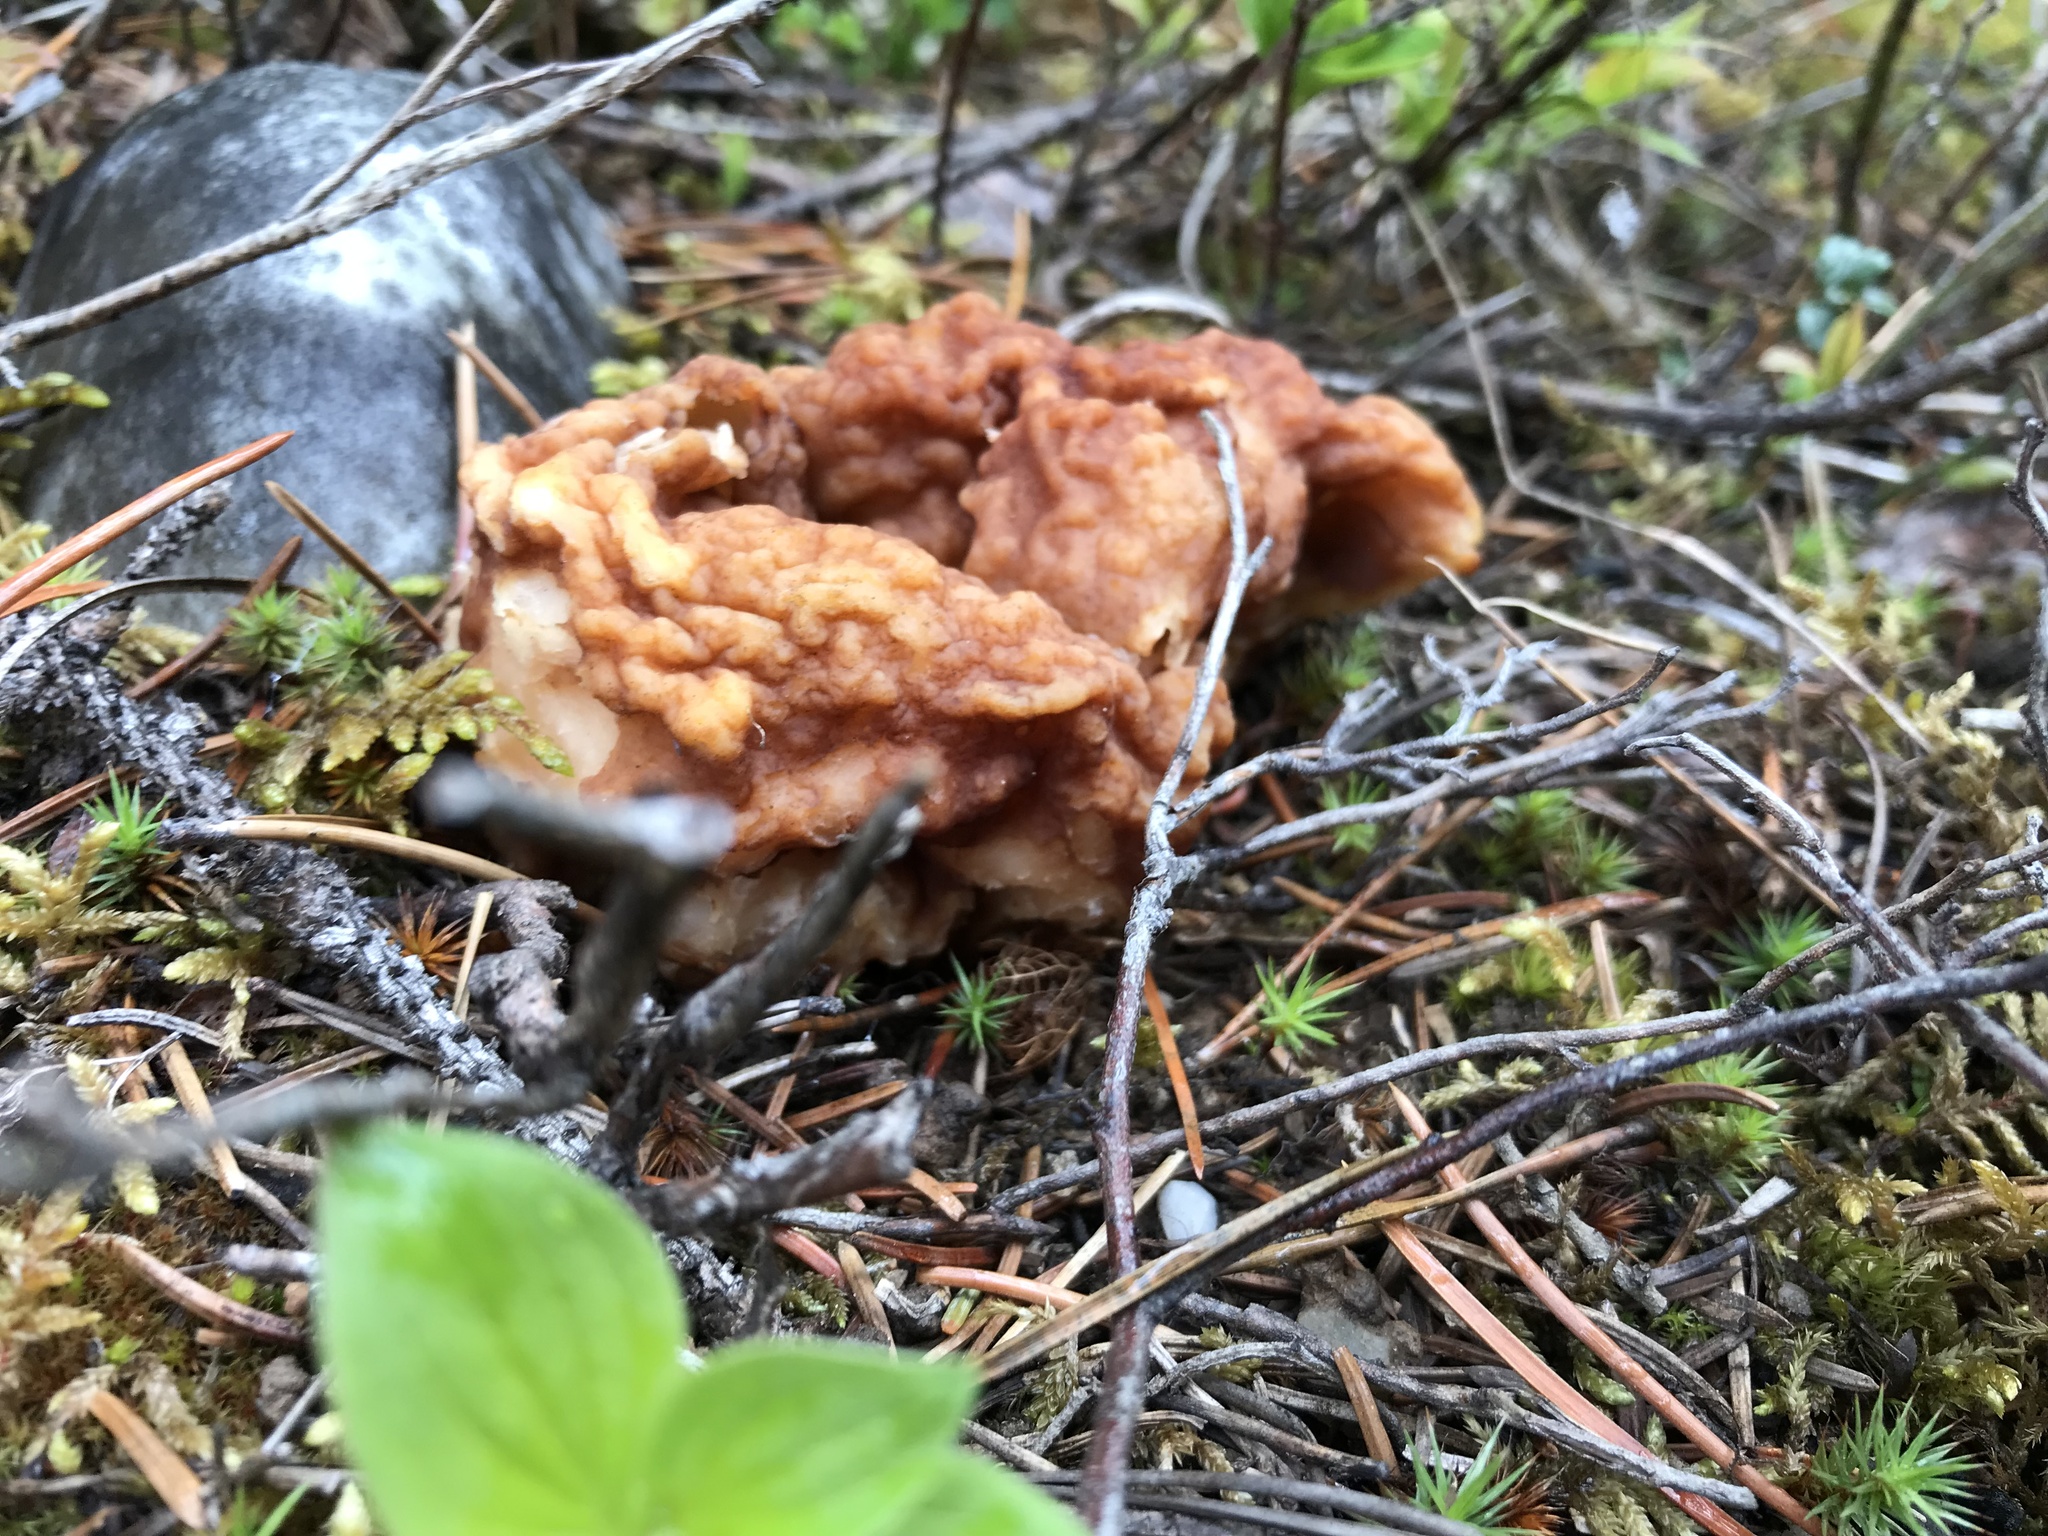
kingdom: Fungi
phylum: Ascomycota
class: Pezizomycetes
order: Pezizales
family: Discinaceae
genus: Gyromitra
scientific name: Gyromitra esculenta
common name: False morel
